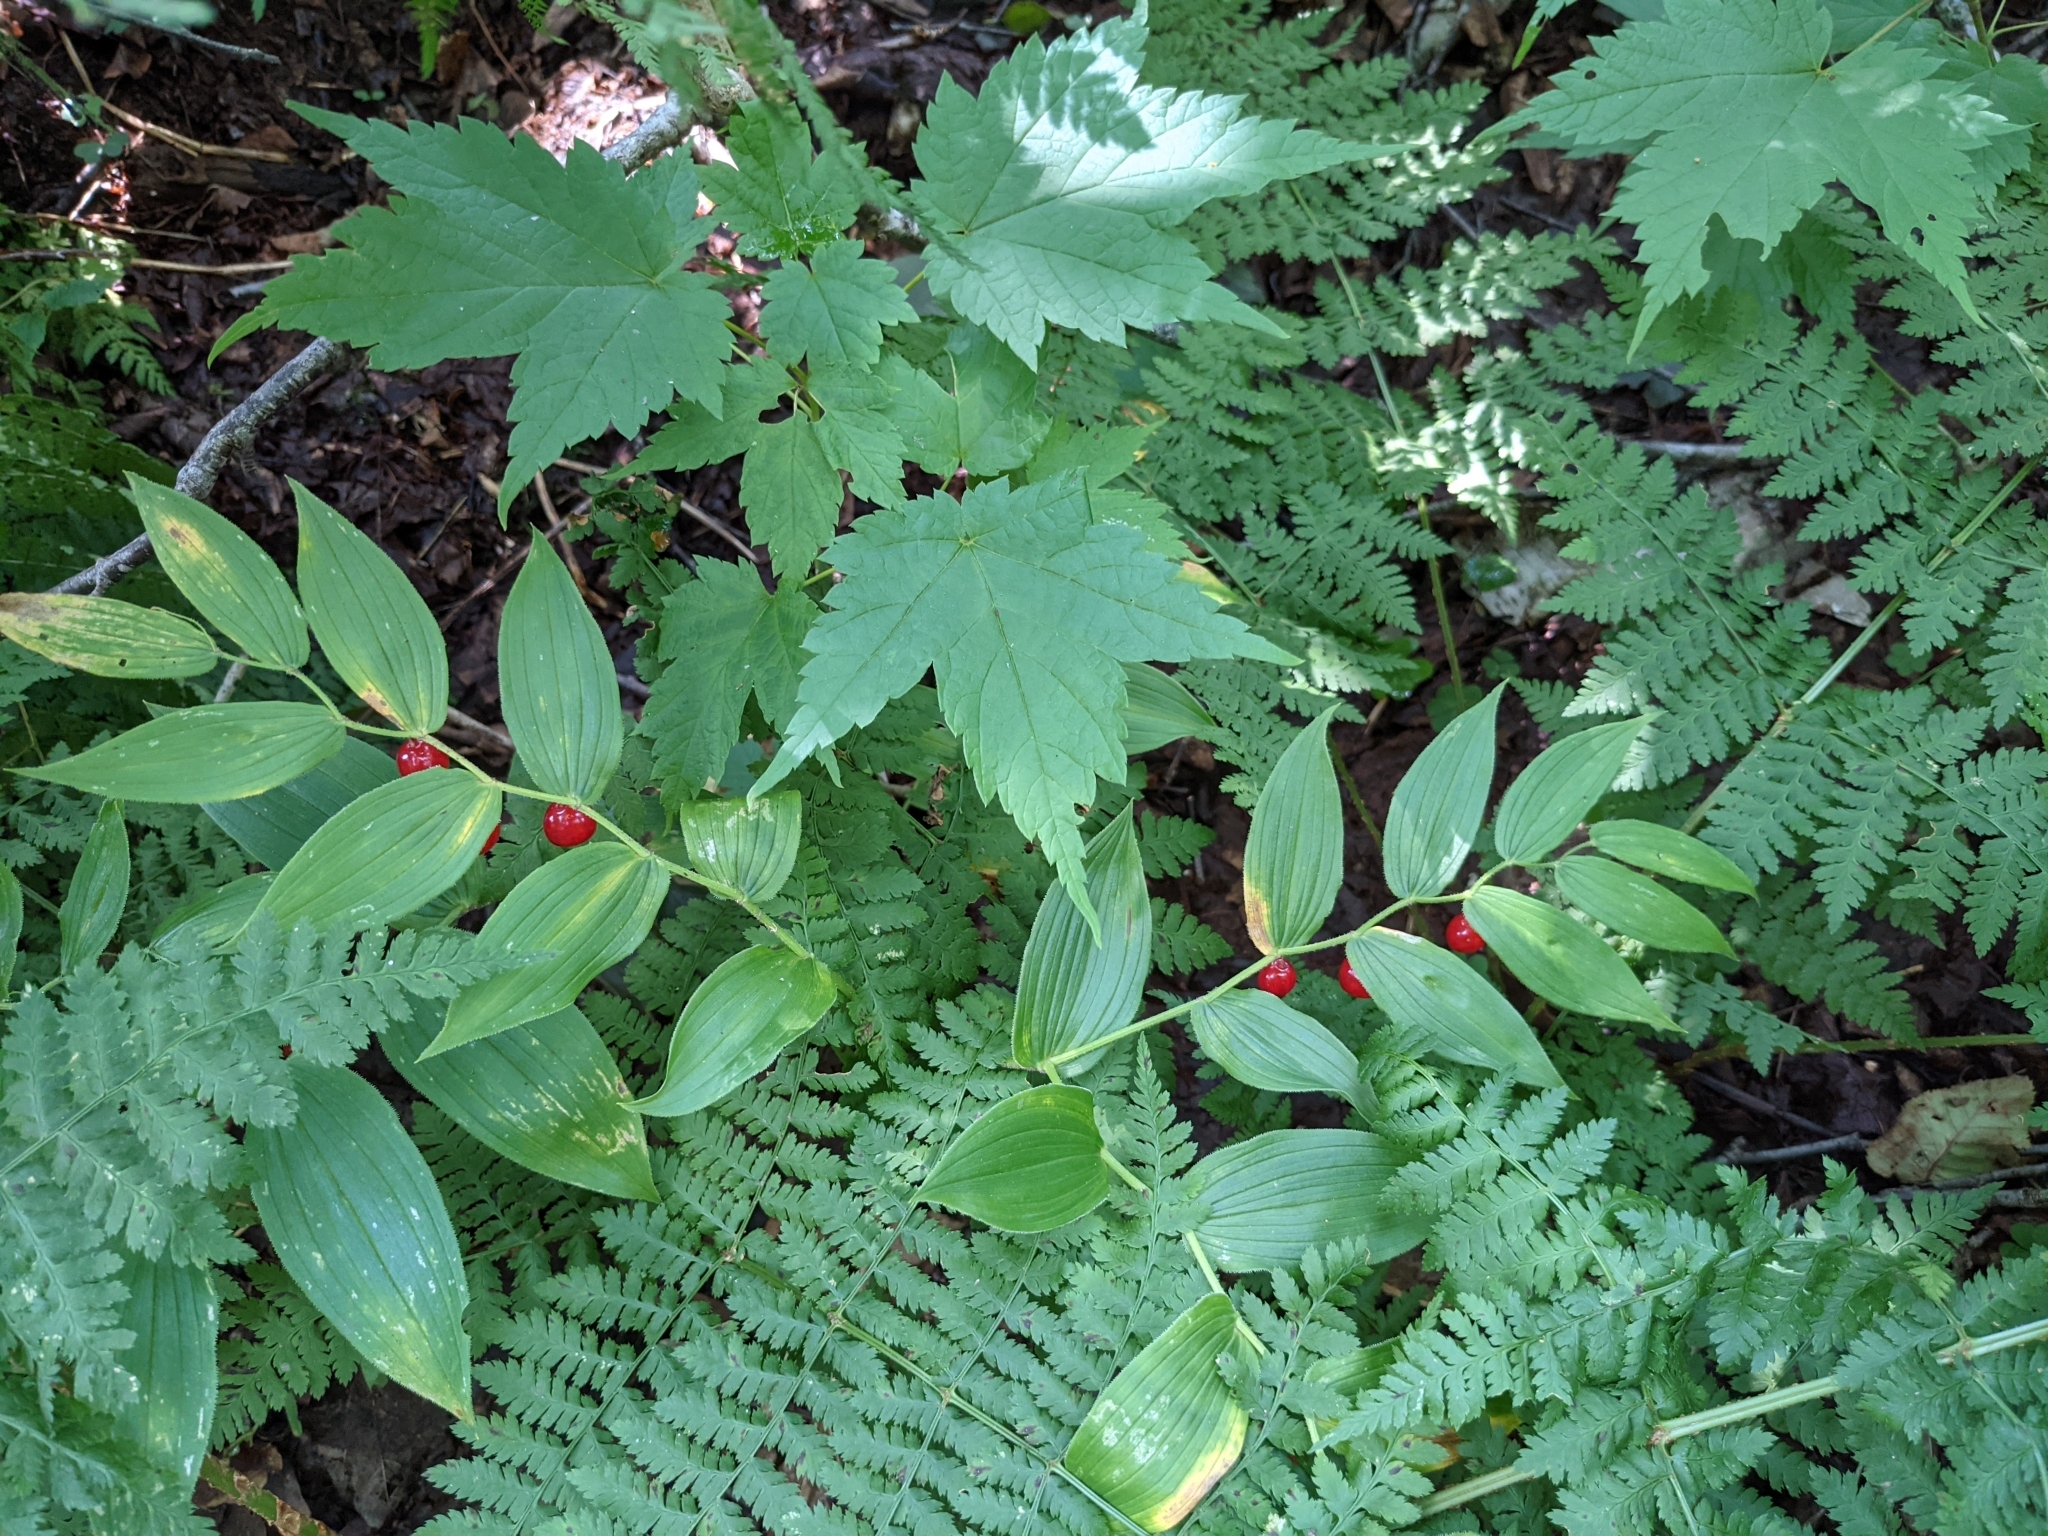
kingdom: Plantae
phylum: Tracheophyta
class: Liliopsida
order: Liliales
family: Liliaceae
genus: Streptopus
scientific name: Streptopus lanceolatus
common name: Rose mandarin
